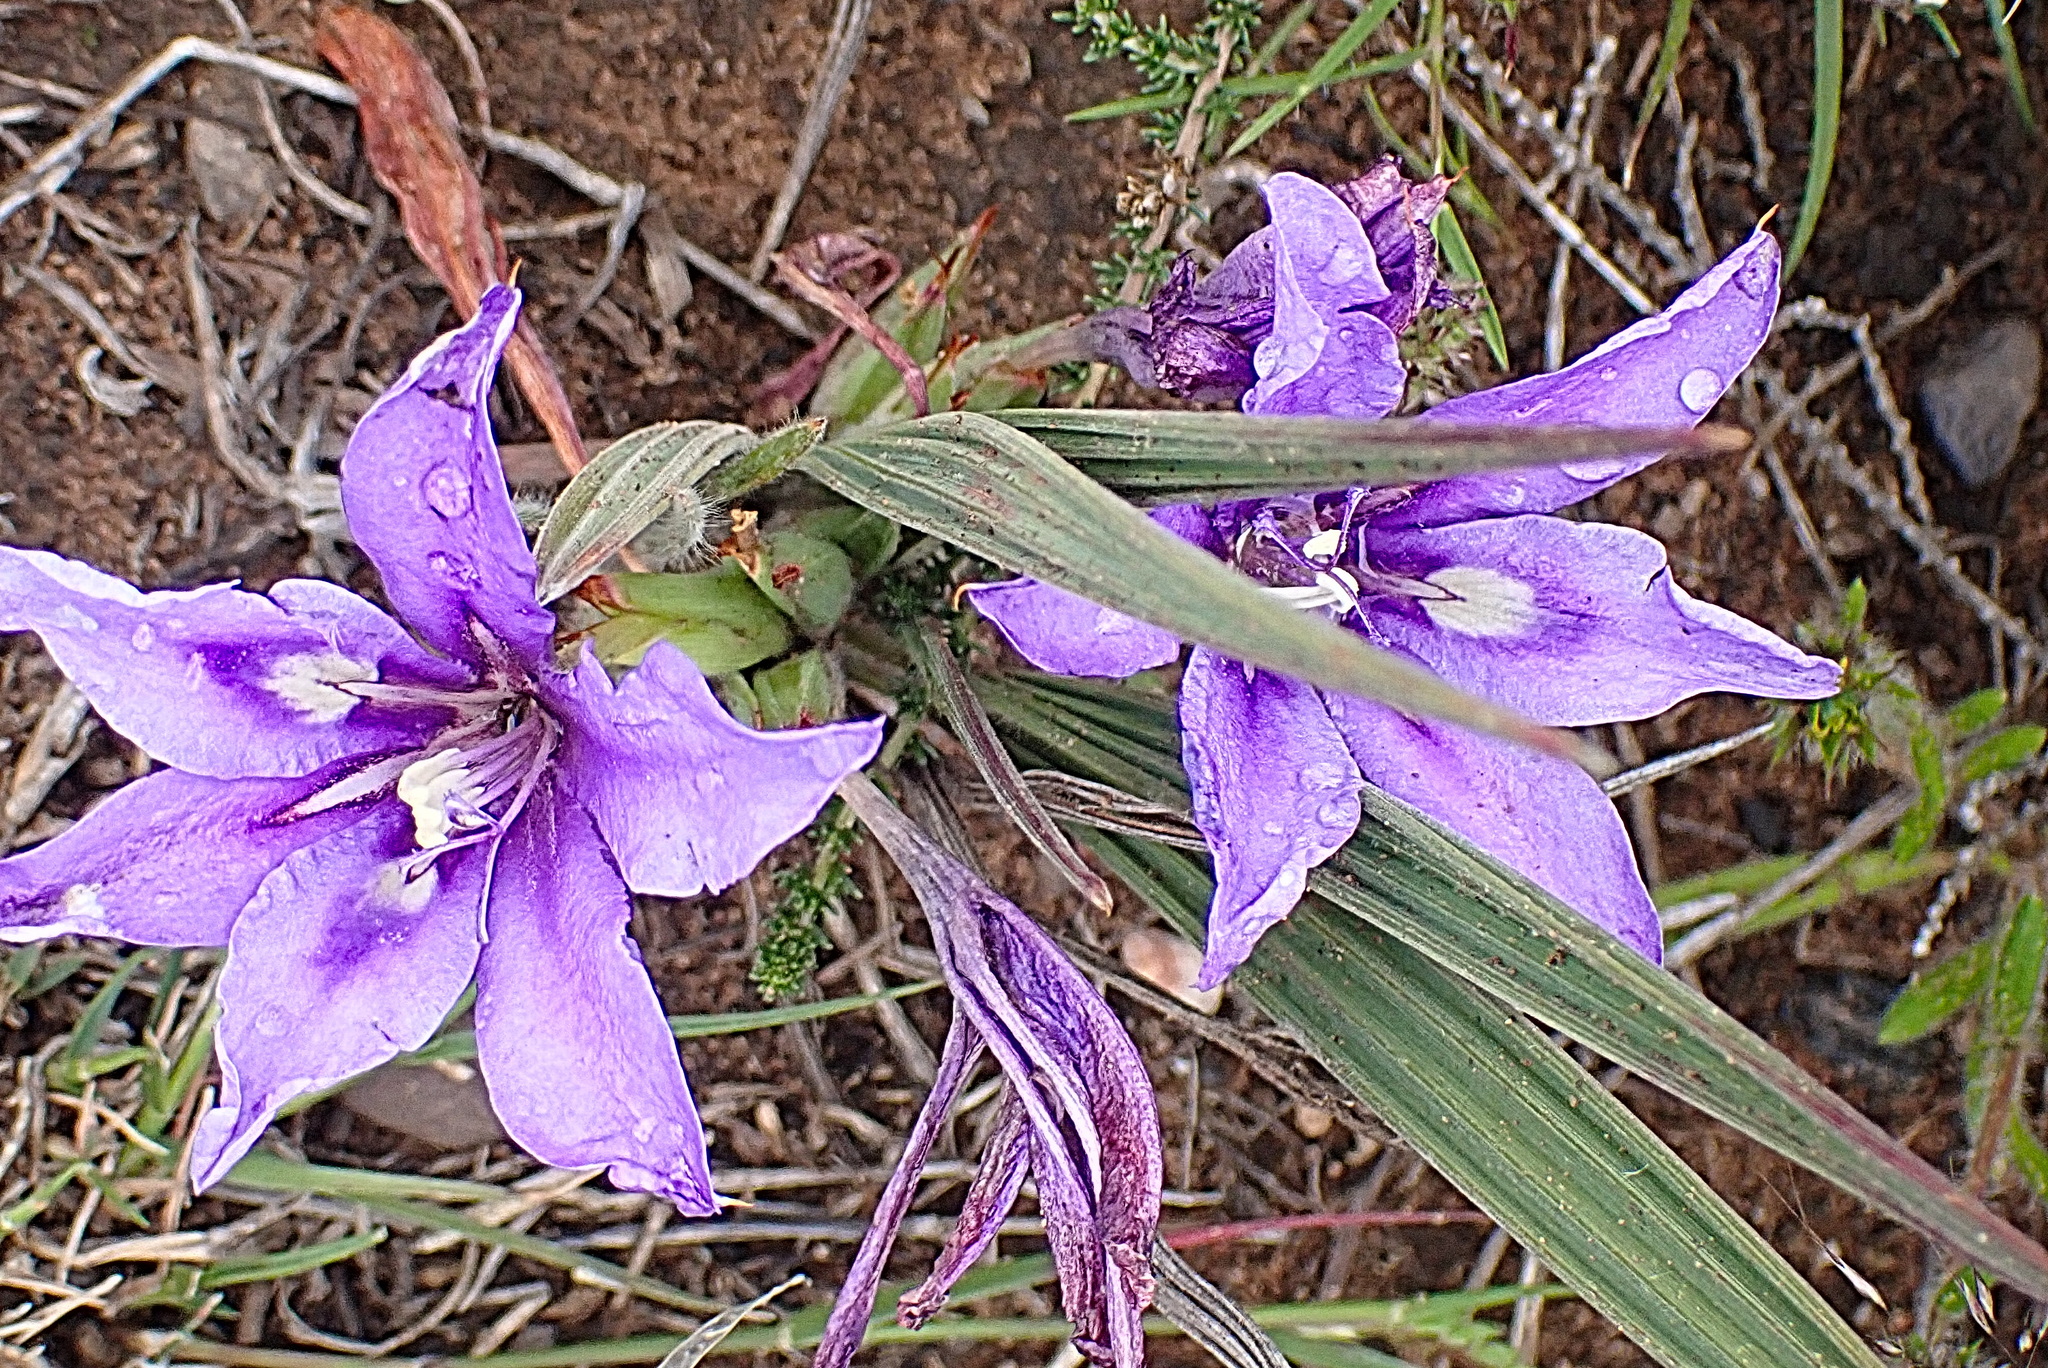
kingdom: Plantae
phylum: Tracheophyta
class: Liliopsida
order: Asparagales
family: Iridaceae
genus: Babiana
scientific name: Babiana sambucina
